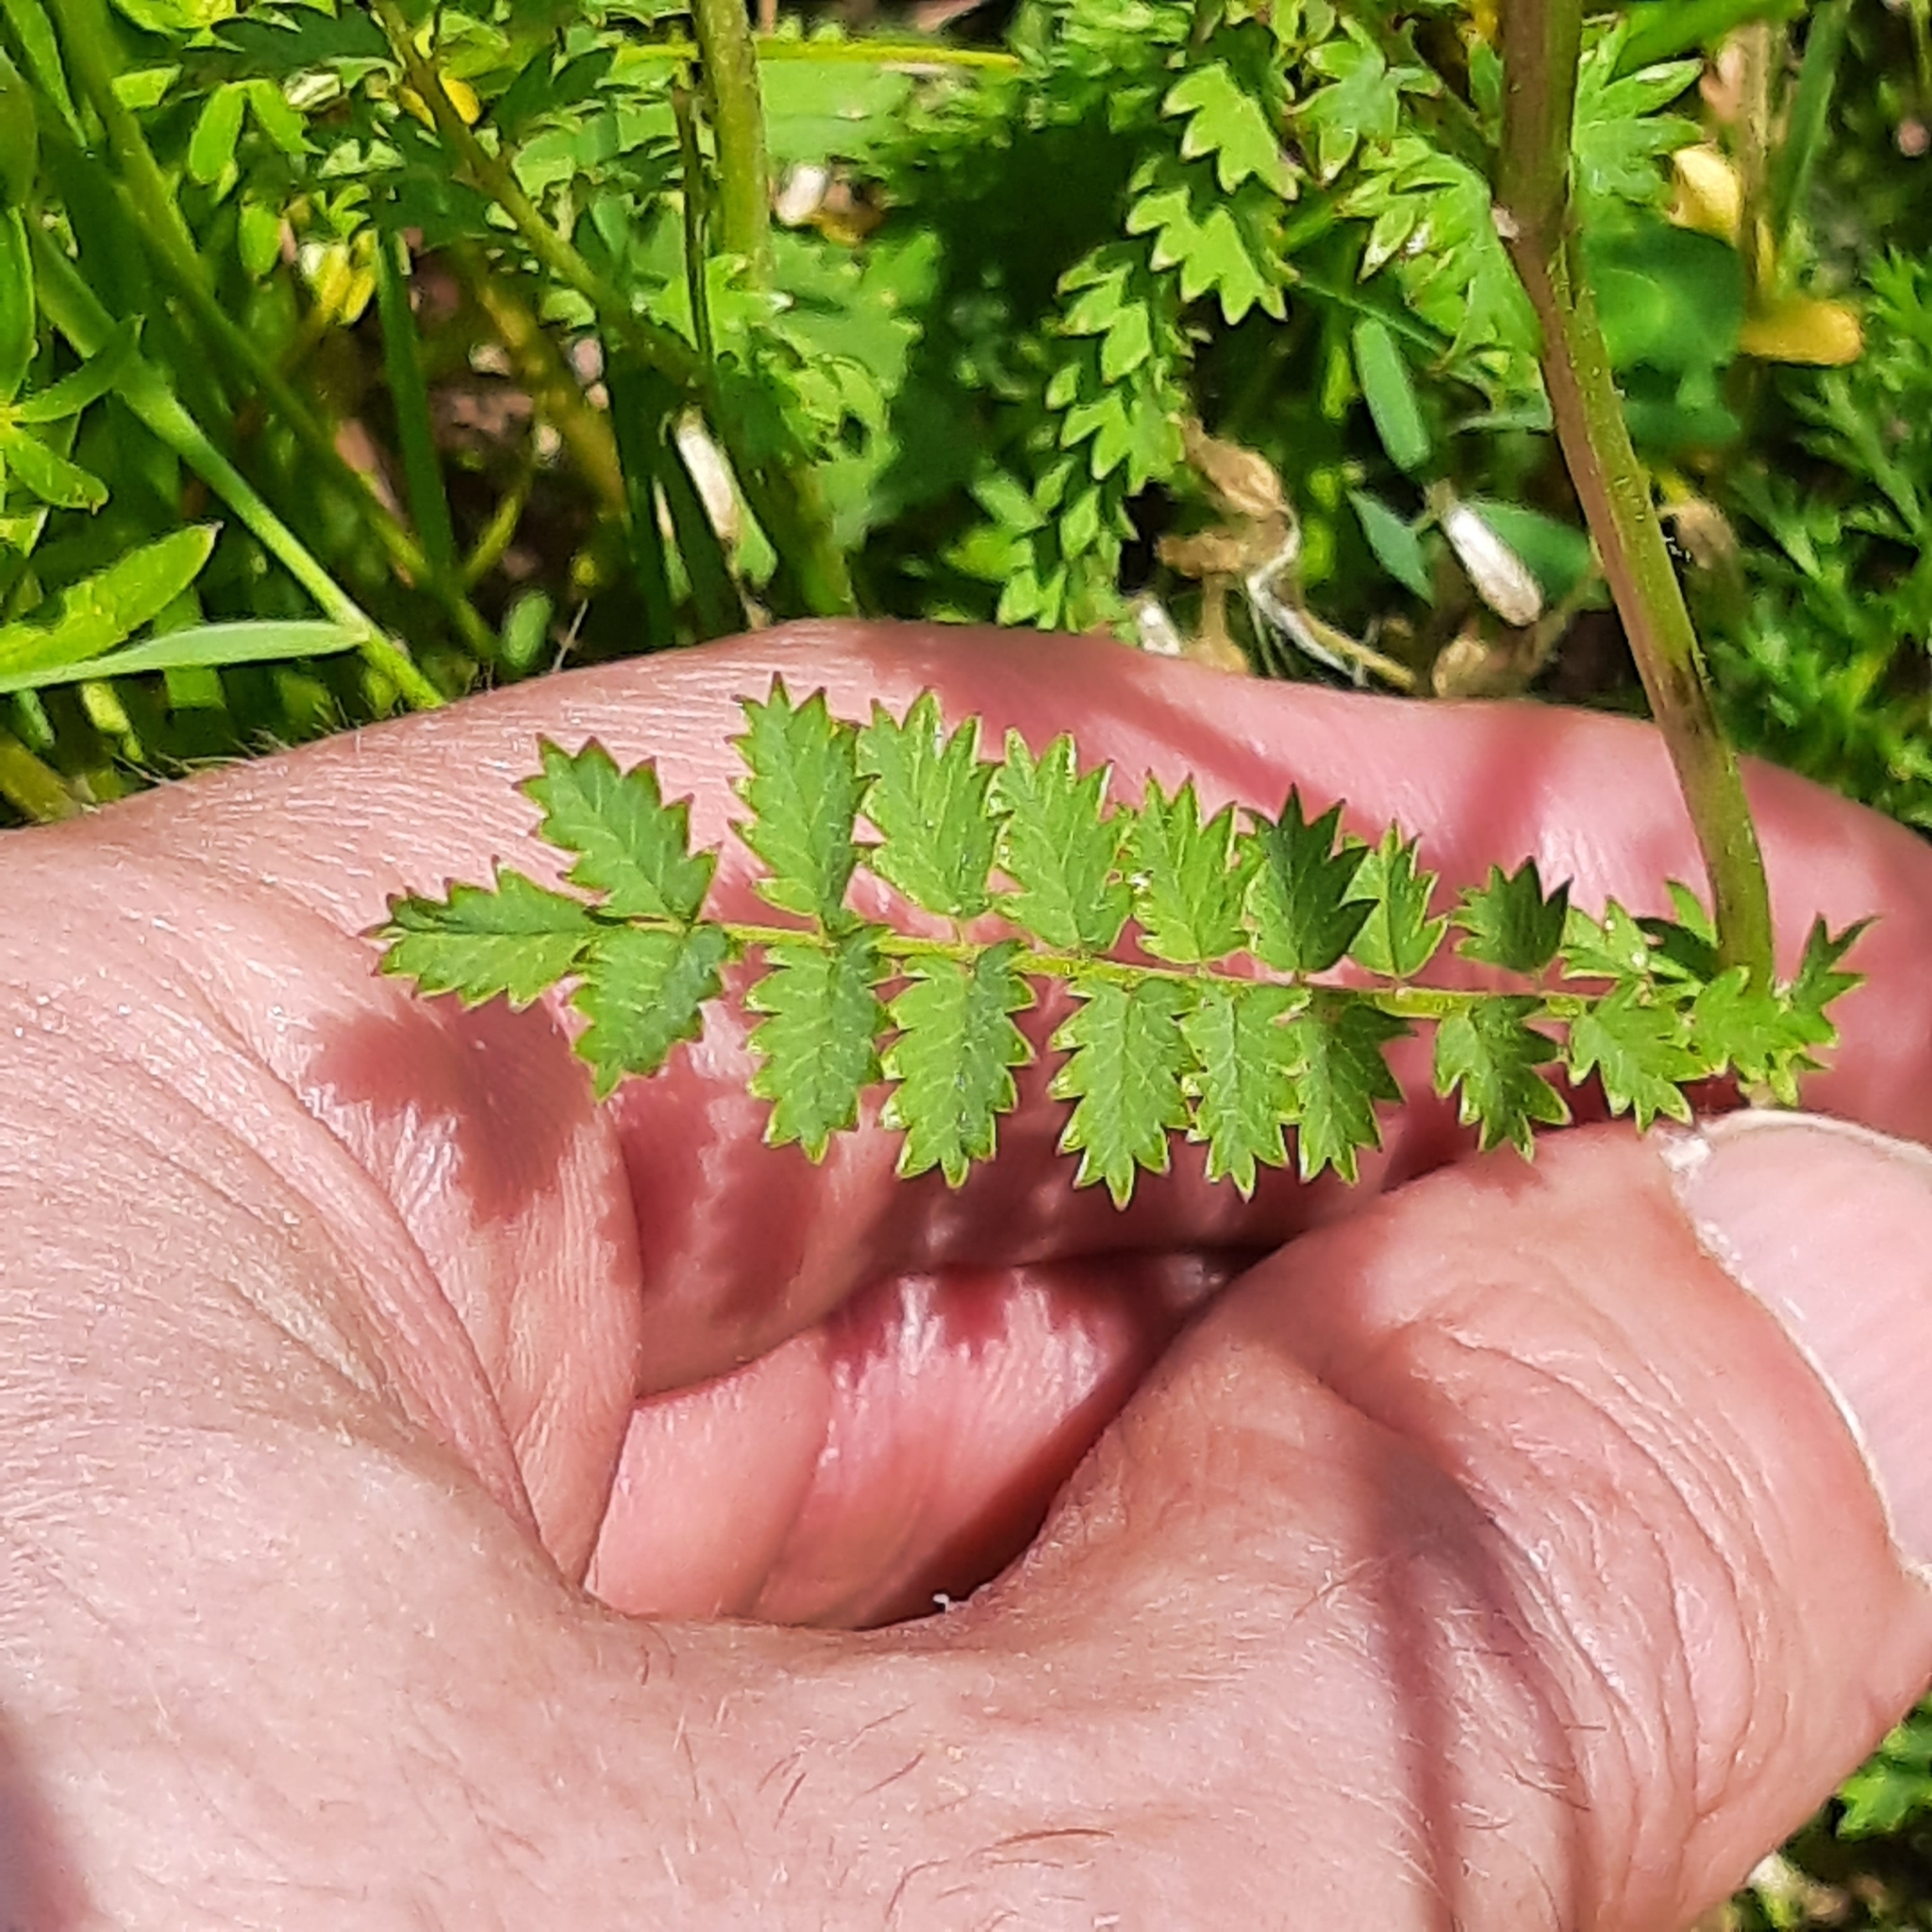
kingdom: Plantae
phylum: Tracheophyta
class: Magnoliopsida
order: Rosales
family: Rosaceae
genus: Poterium
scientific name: Poterium sanguisorba
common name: Salad burnet
